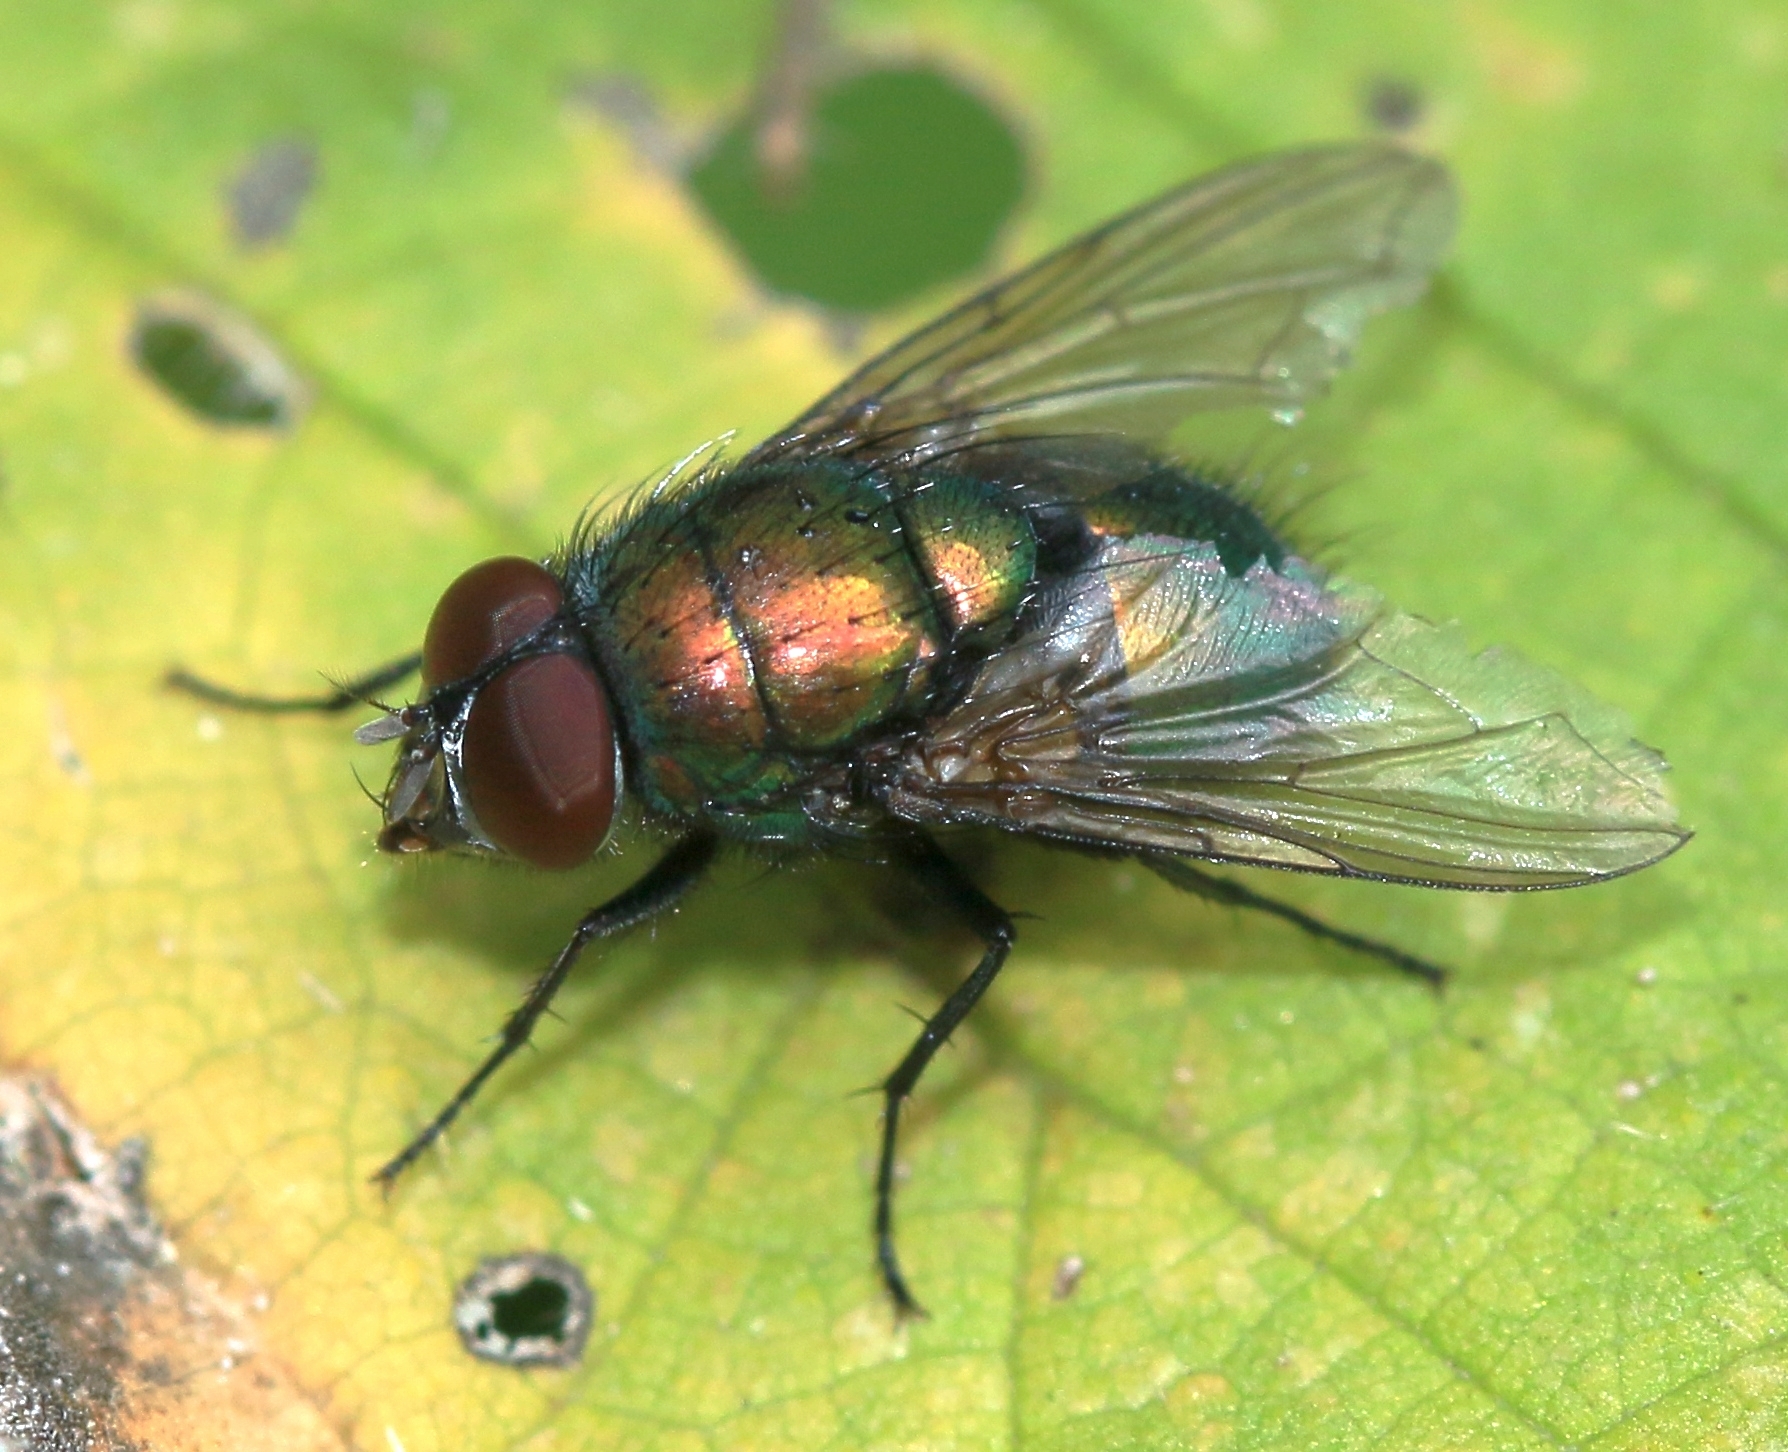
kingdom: Animalia
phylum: Arthropoda
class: Insecta
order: Diptera
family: Calliphoridae
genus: Lucilia
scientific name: Lucilia
